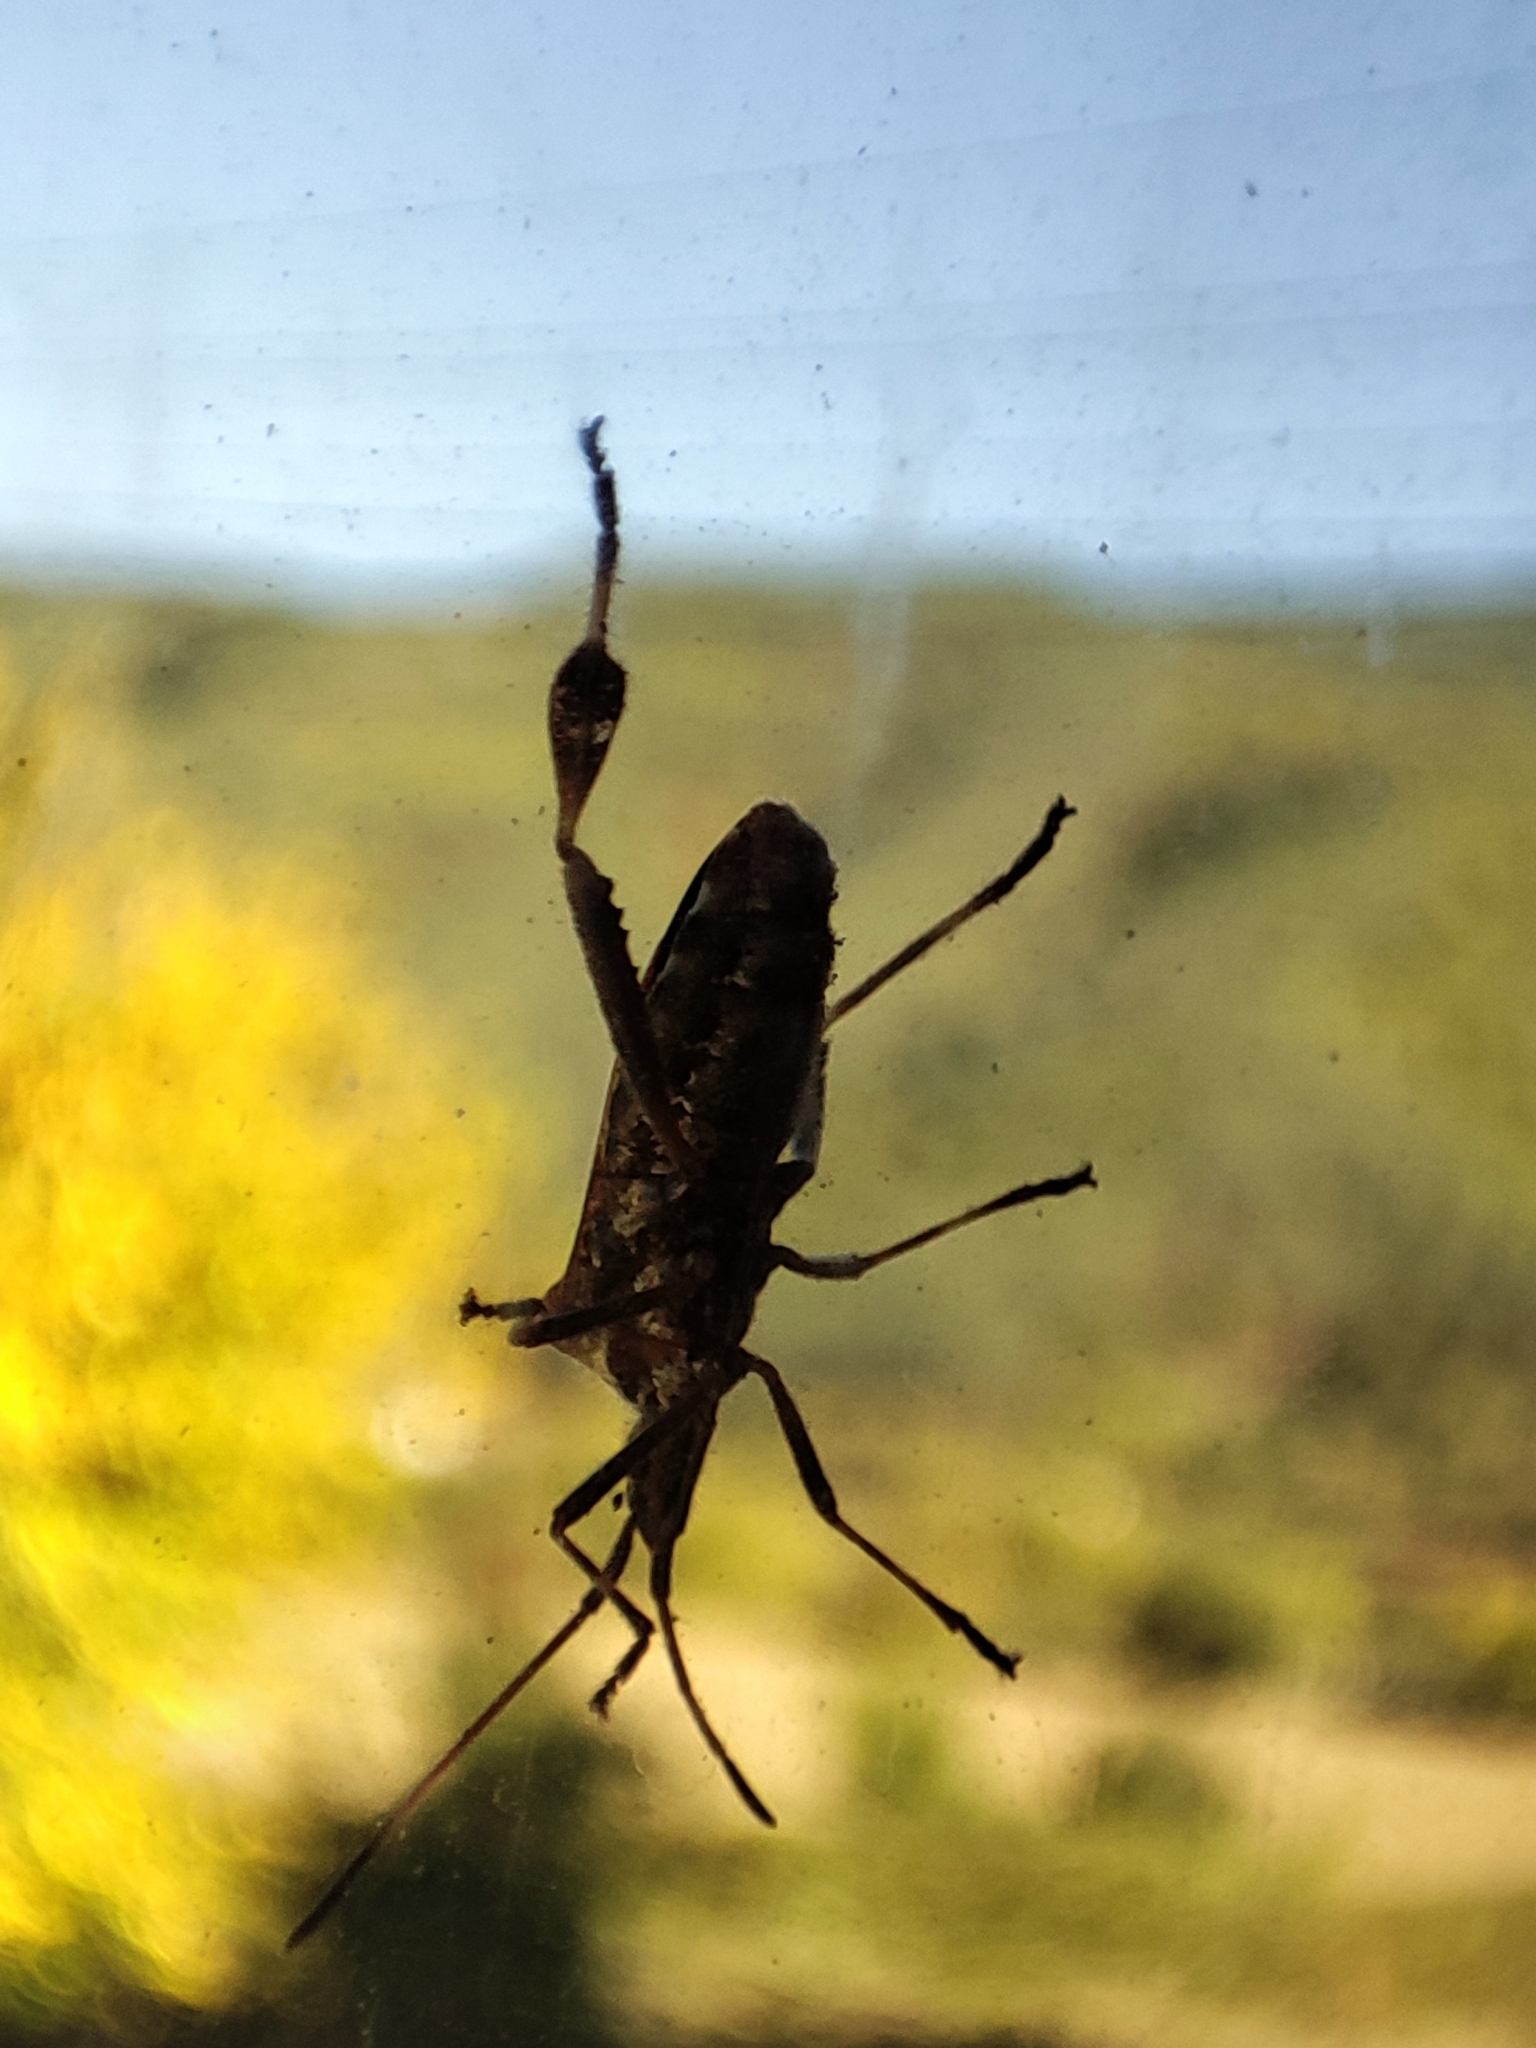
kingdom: Animalia
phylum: Arthropoda
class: Insecta
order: Hemiptera
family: Coreidae
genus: Leptoglossus
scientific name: Leptoglossus occidentalis
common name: Western conifer-seed bug
